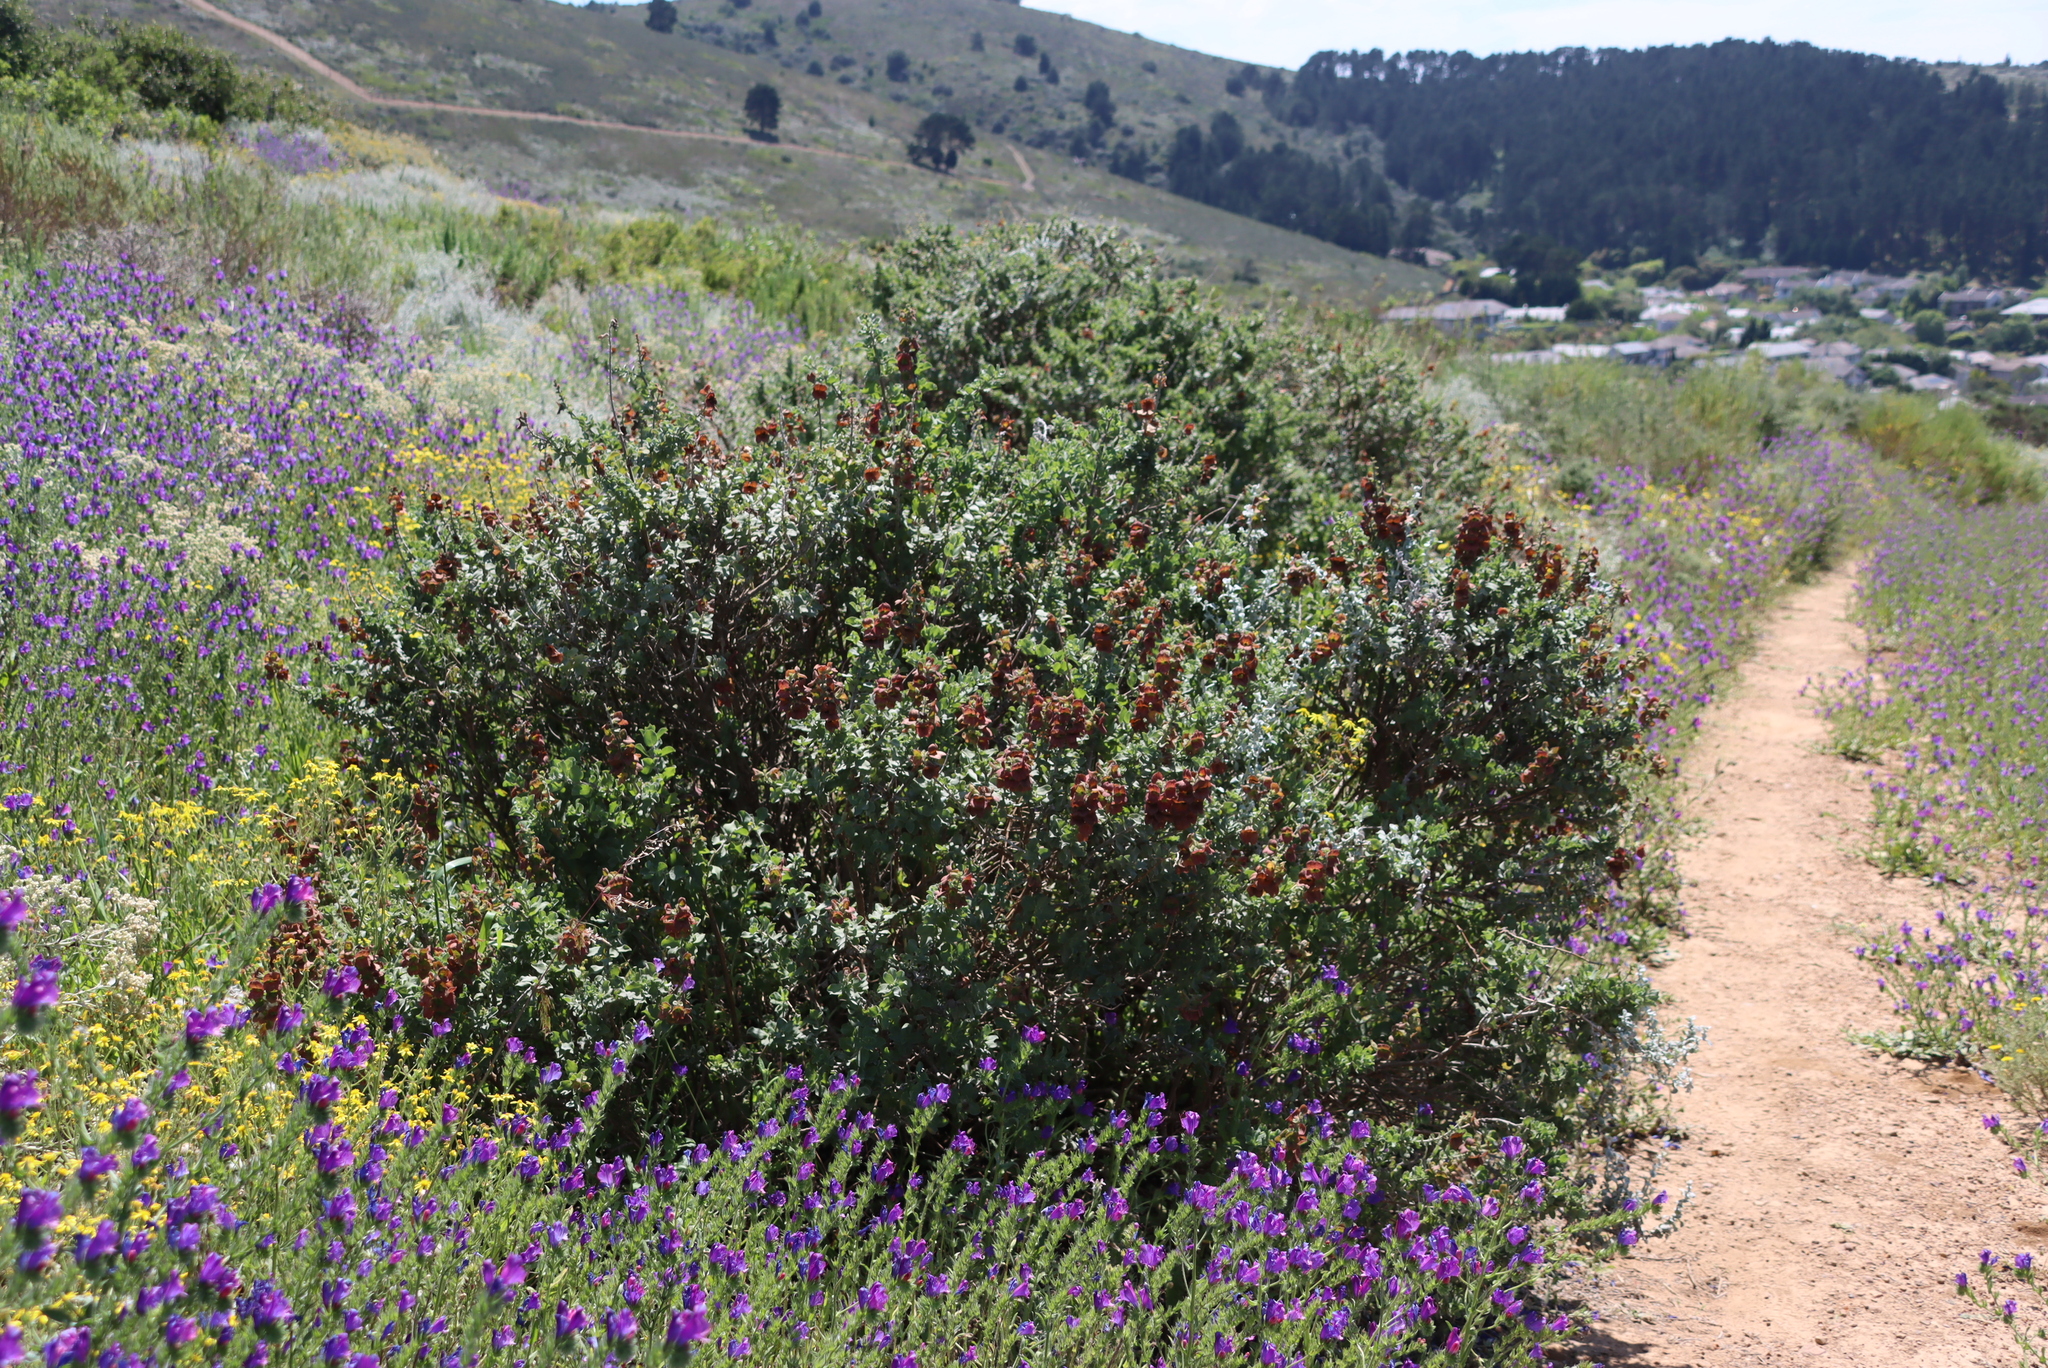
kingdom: Plantae
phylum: Tracheophyta
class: Magnoliopsida
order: Lamiales
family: Lamiaceae
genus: Salvia
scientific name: Salvia aurea
